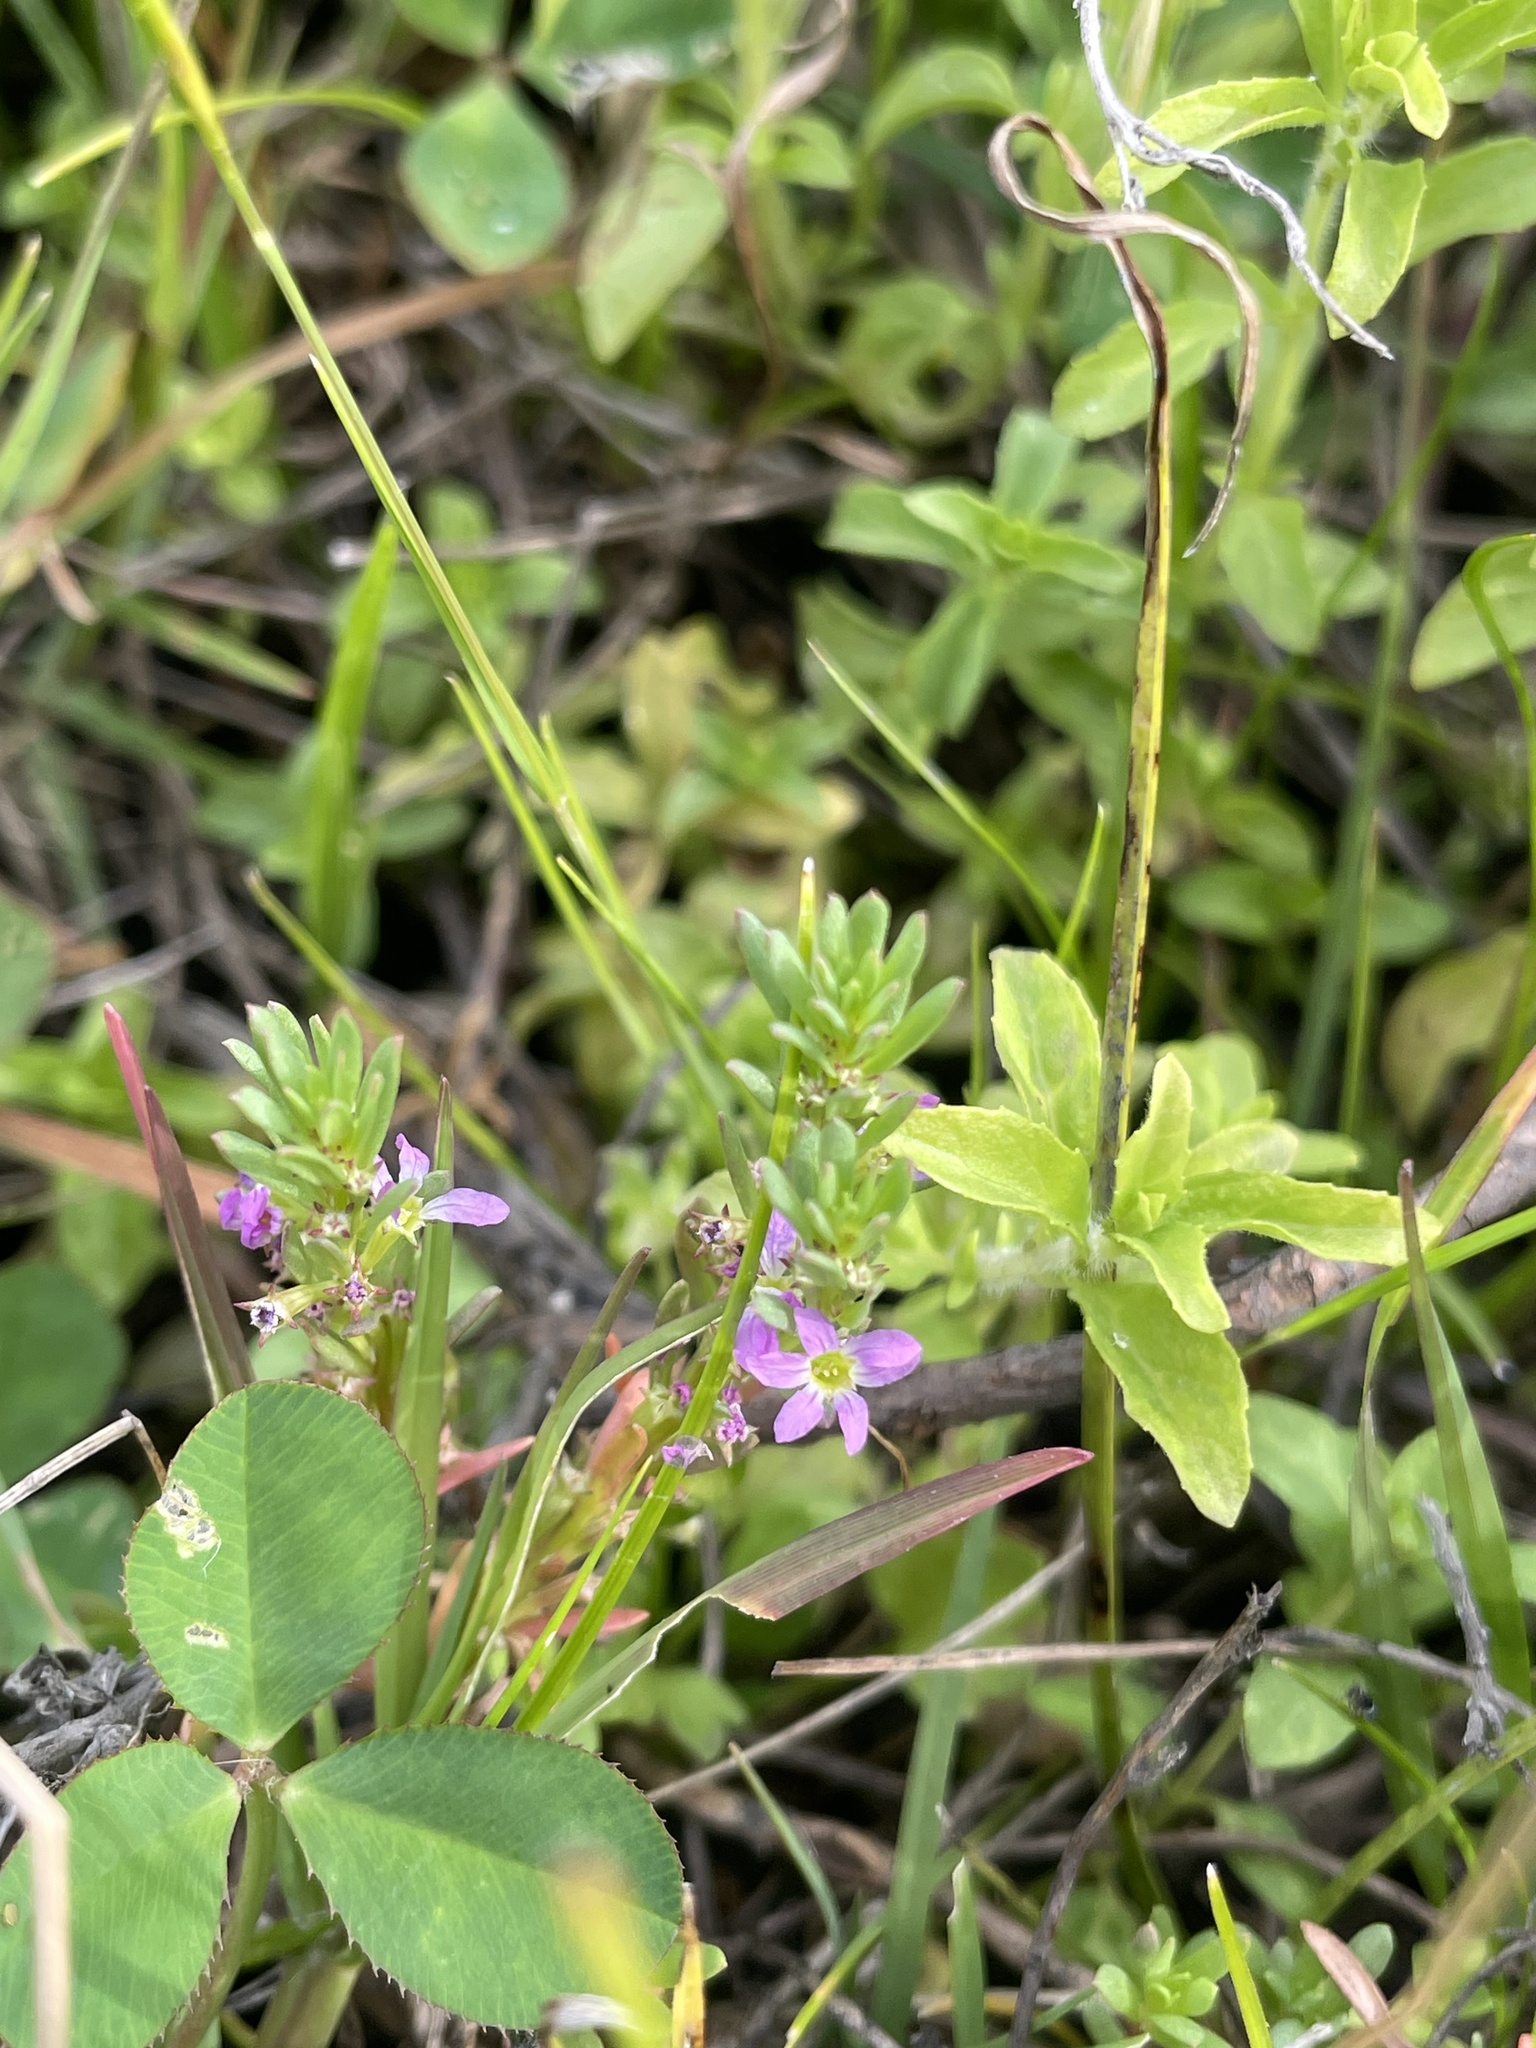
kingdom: Plantae
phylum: Tracheophyta
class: Magnoliopsida
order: Myrtales
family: Lythraceae
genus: Lythrum
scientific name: Lythrum hyssopifolia
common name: Grass-poly
